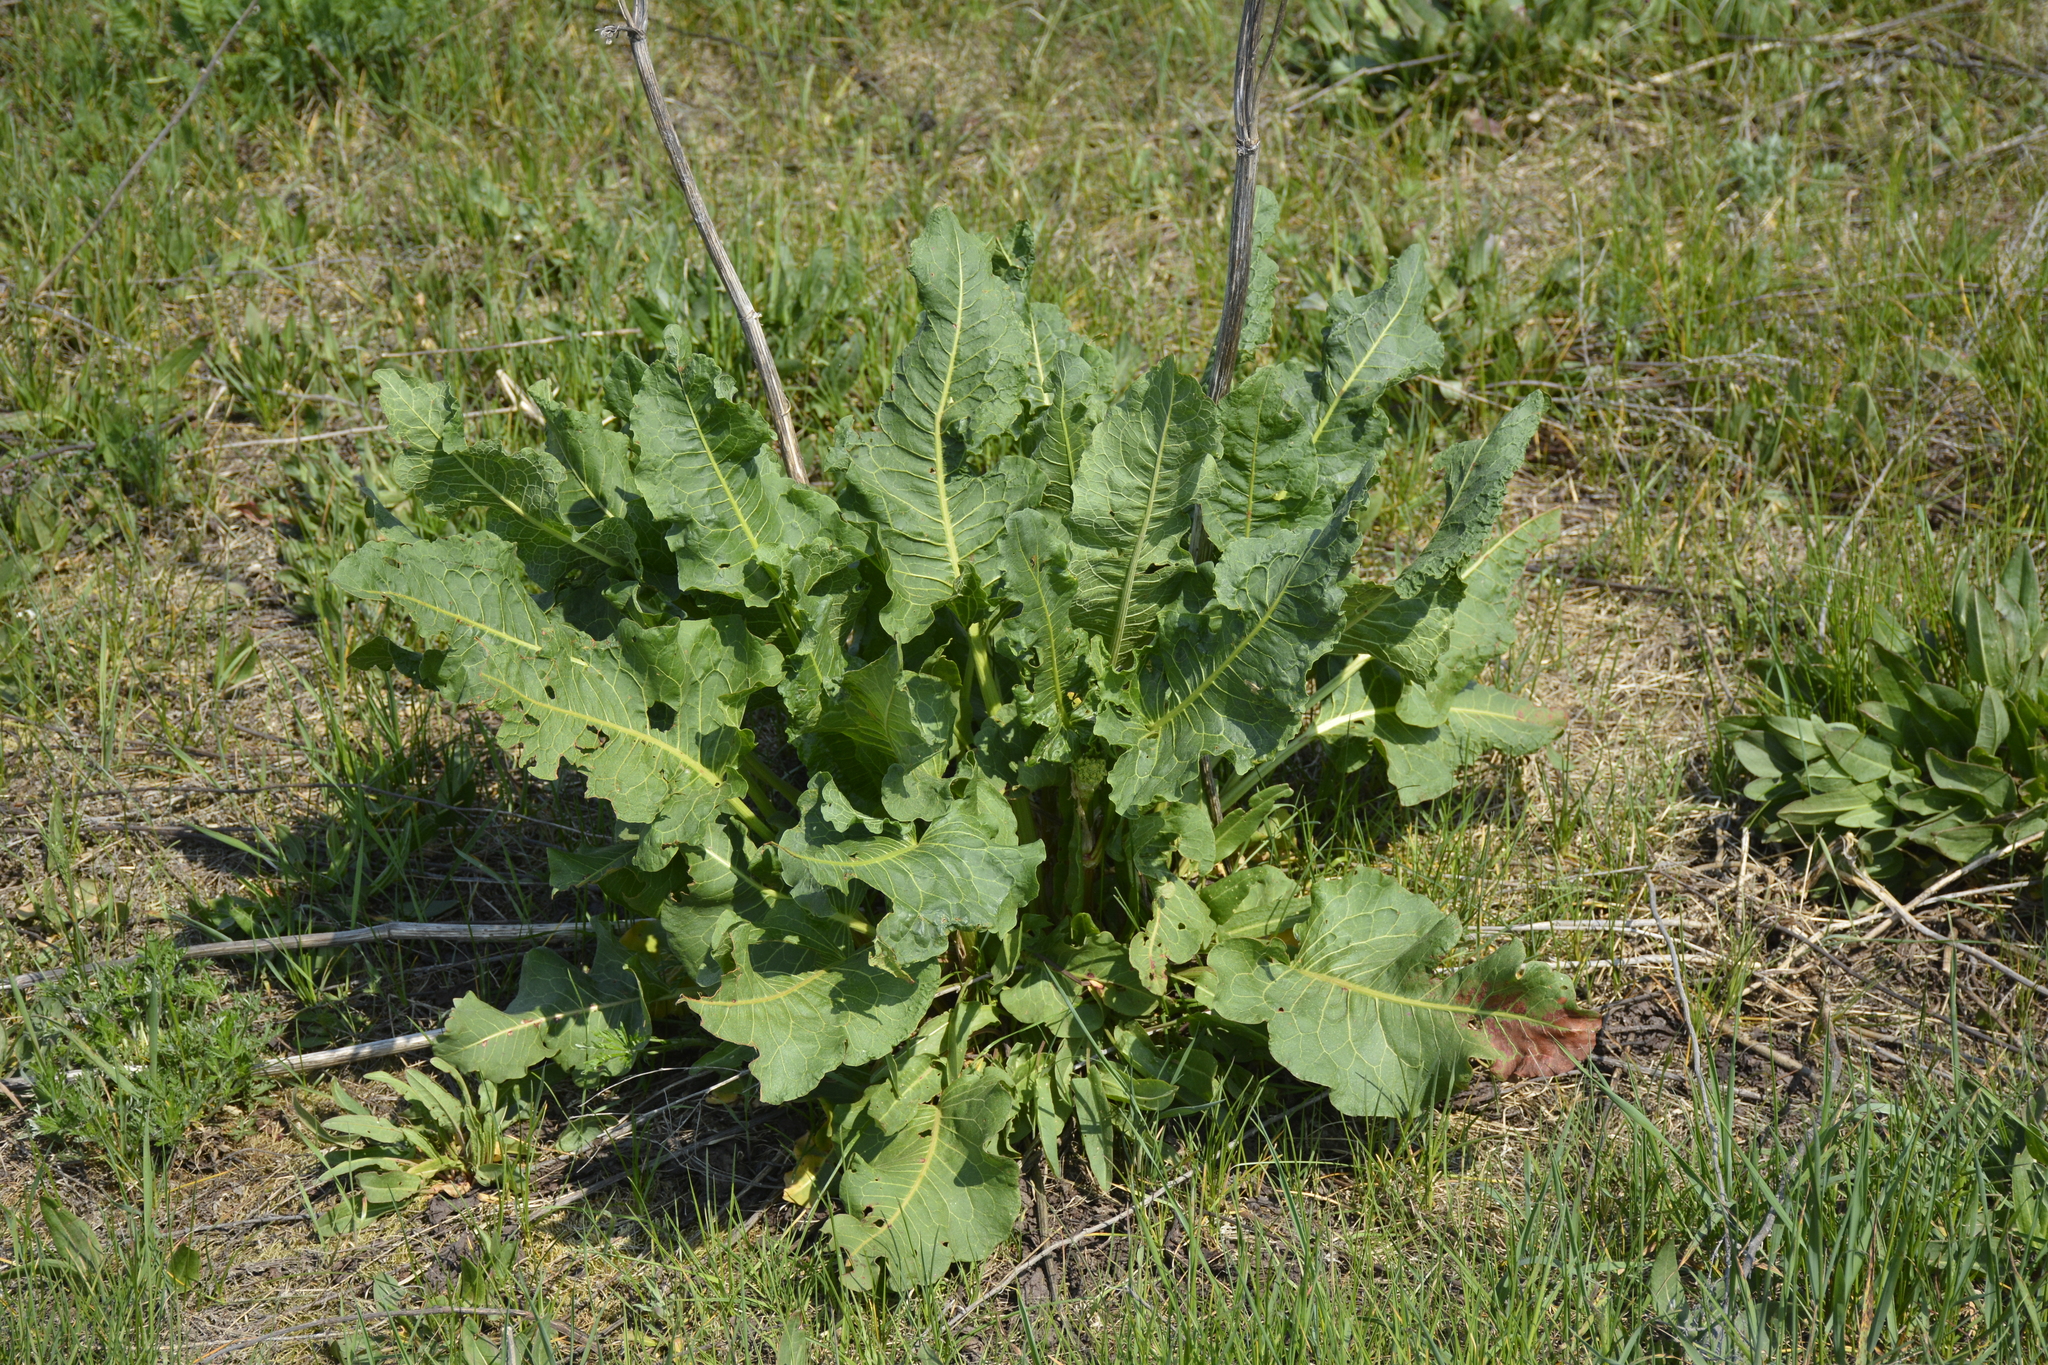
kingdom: Plantae
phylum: Tracheophyta
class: Magnoliopsida
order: Caryophyllales
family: Polygonaceae
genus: Rumex
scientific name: Rumex confertus
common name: Russian dock
